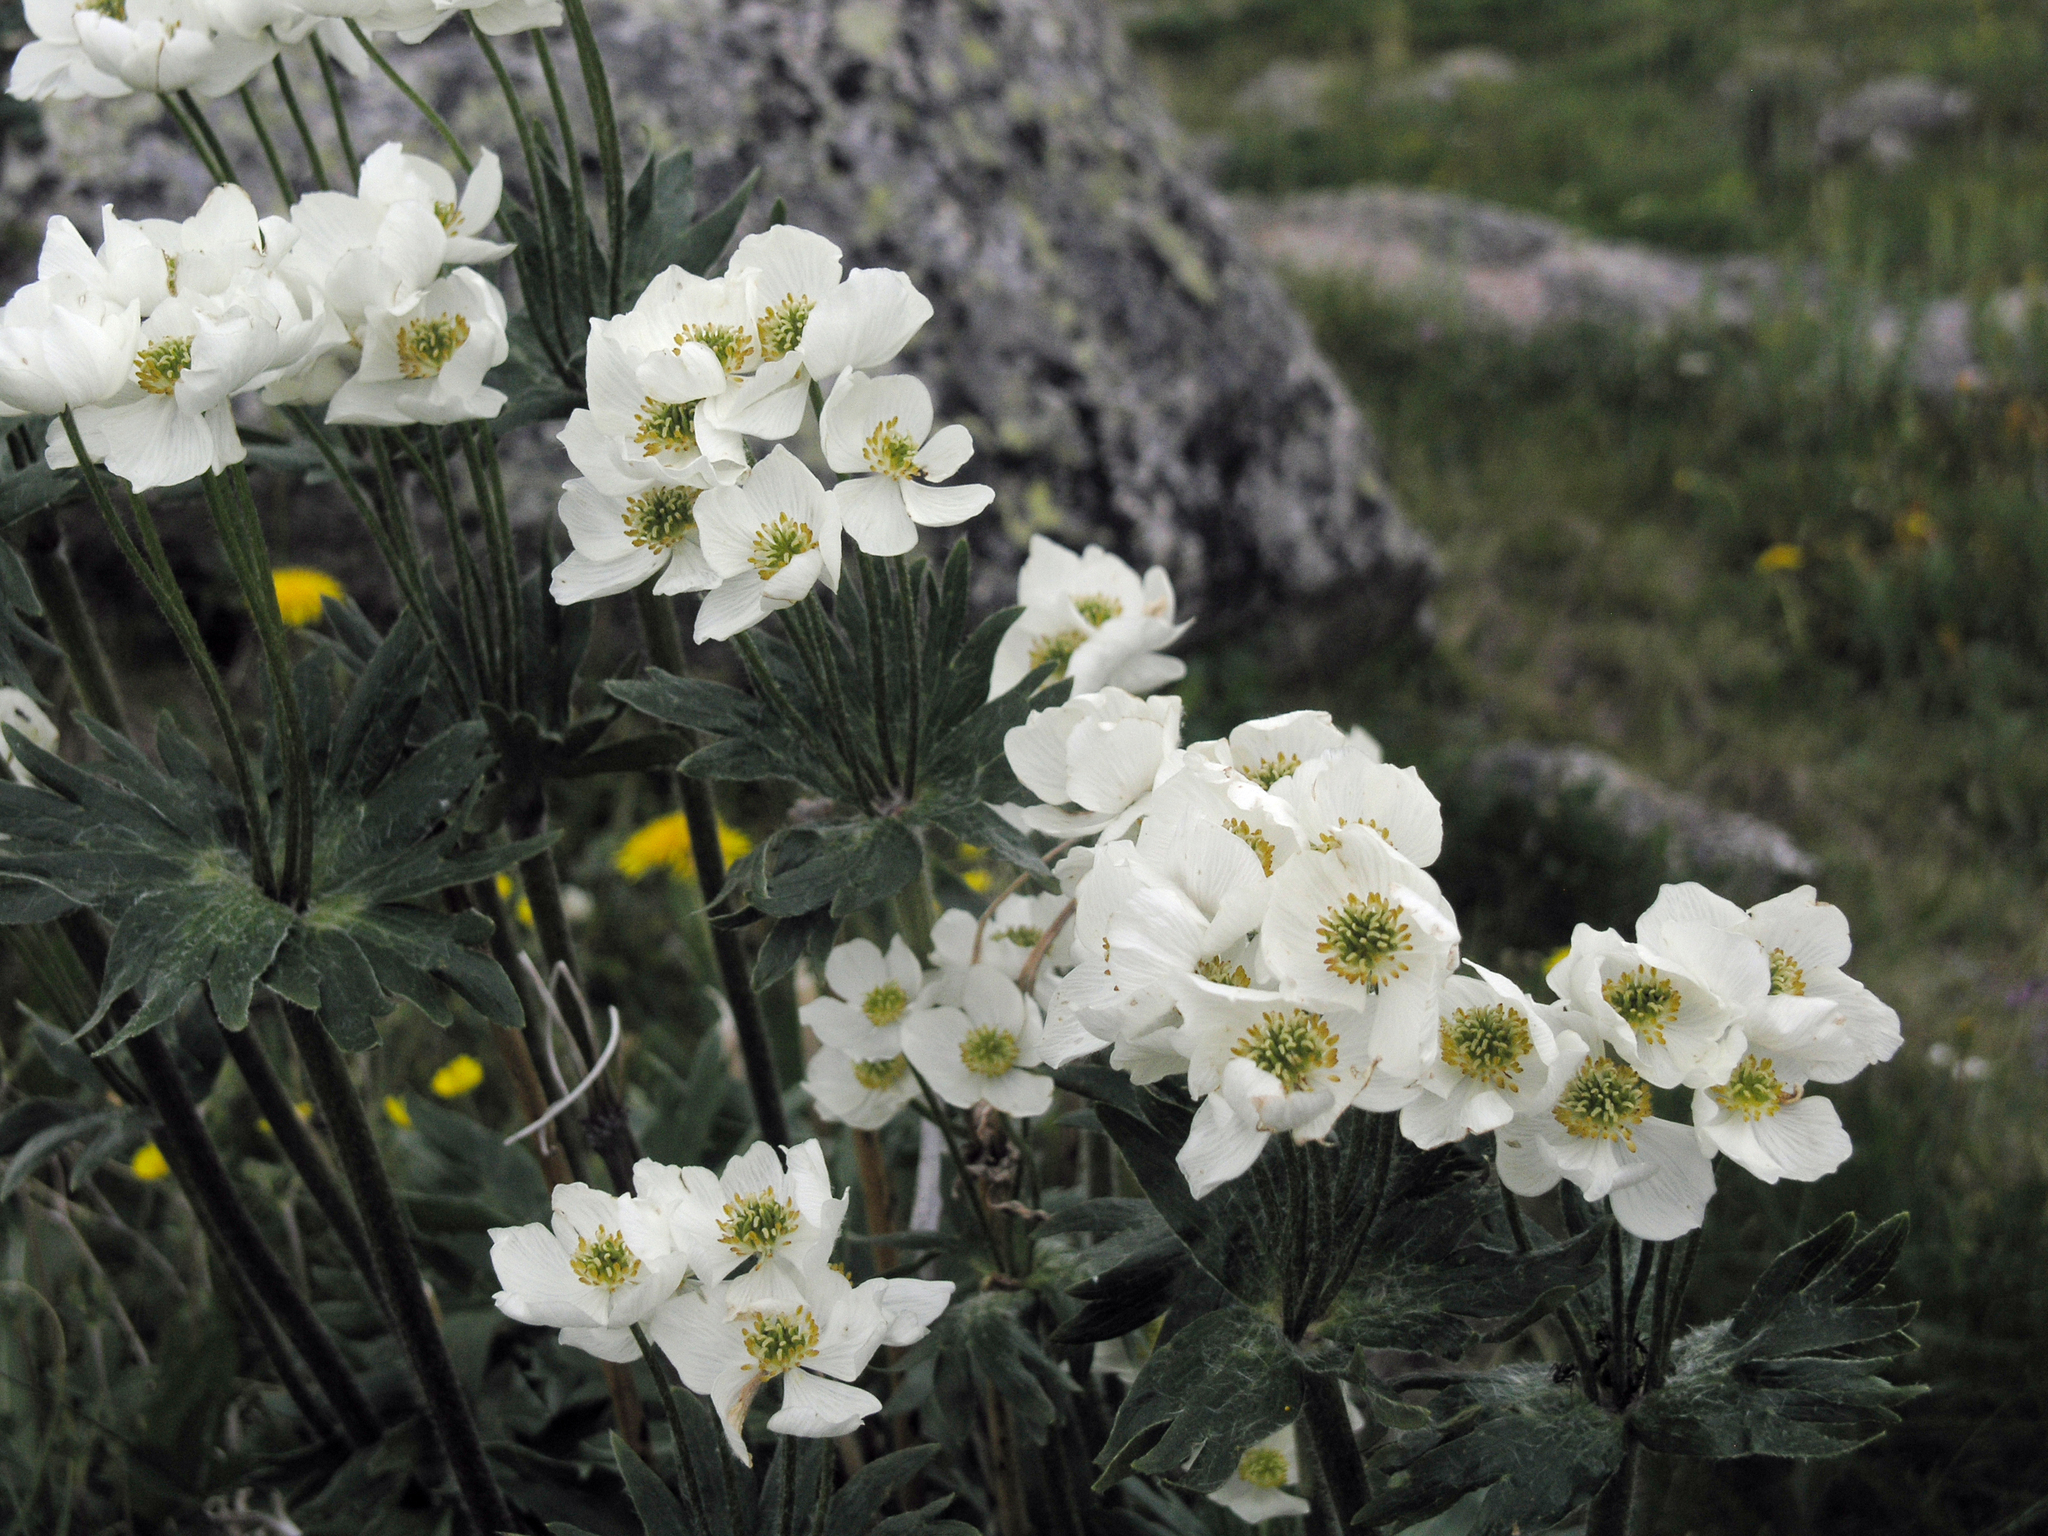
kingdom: Plantae
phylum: Tracheophyta
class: Magnoliopsida
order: Ranunculales
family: Ranunculaceae
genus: Anemonastrum
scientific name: Anemonastrum narcissiflorum
